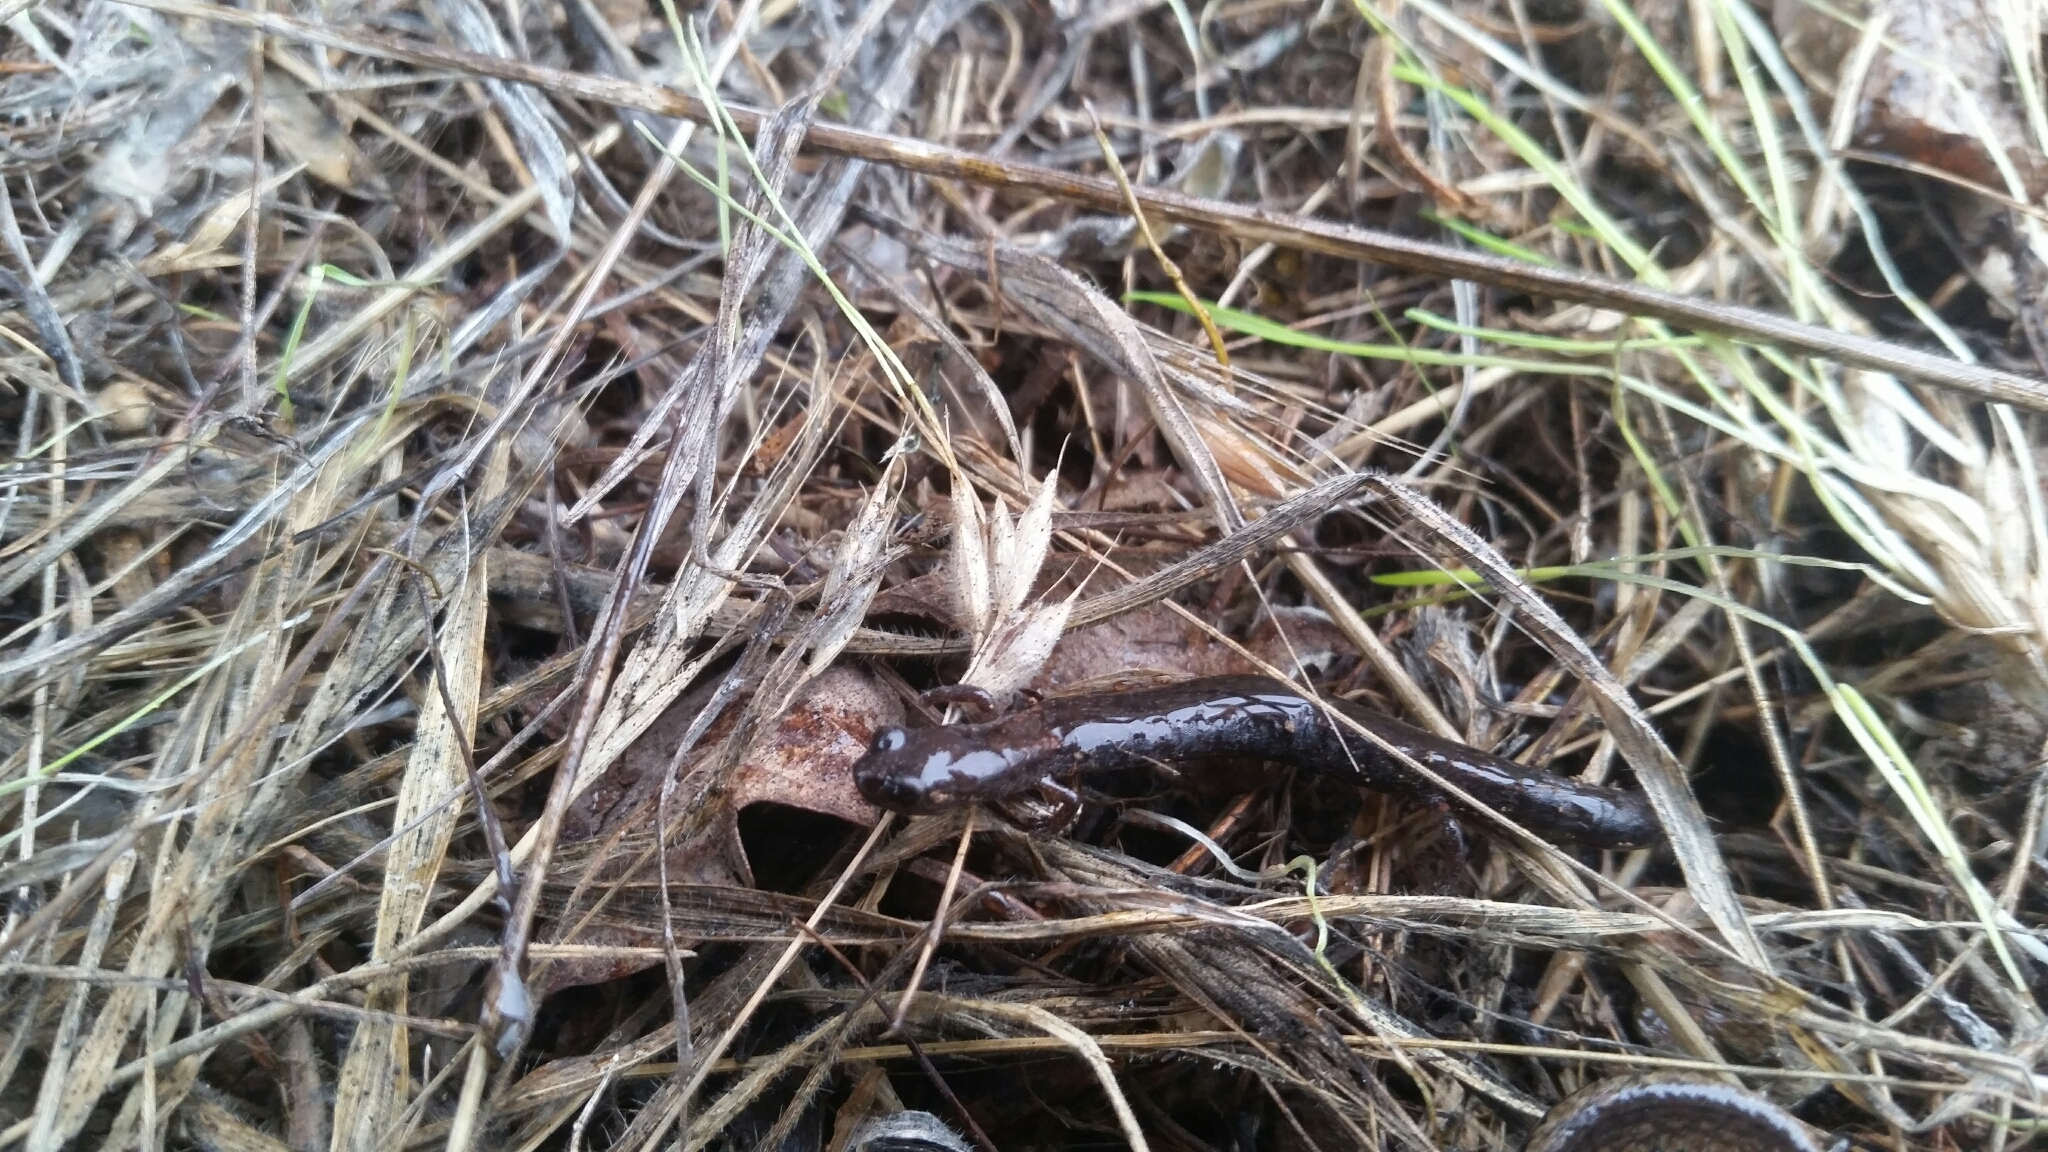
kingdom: Animalia
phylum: Chordata
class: Amphibia
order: Caudata
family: Plethodontidae
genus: Batrachoseps
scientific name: Batrachoseps attenuatus
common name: California slender salamander
